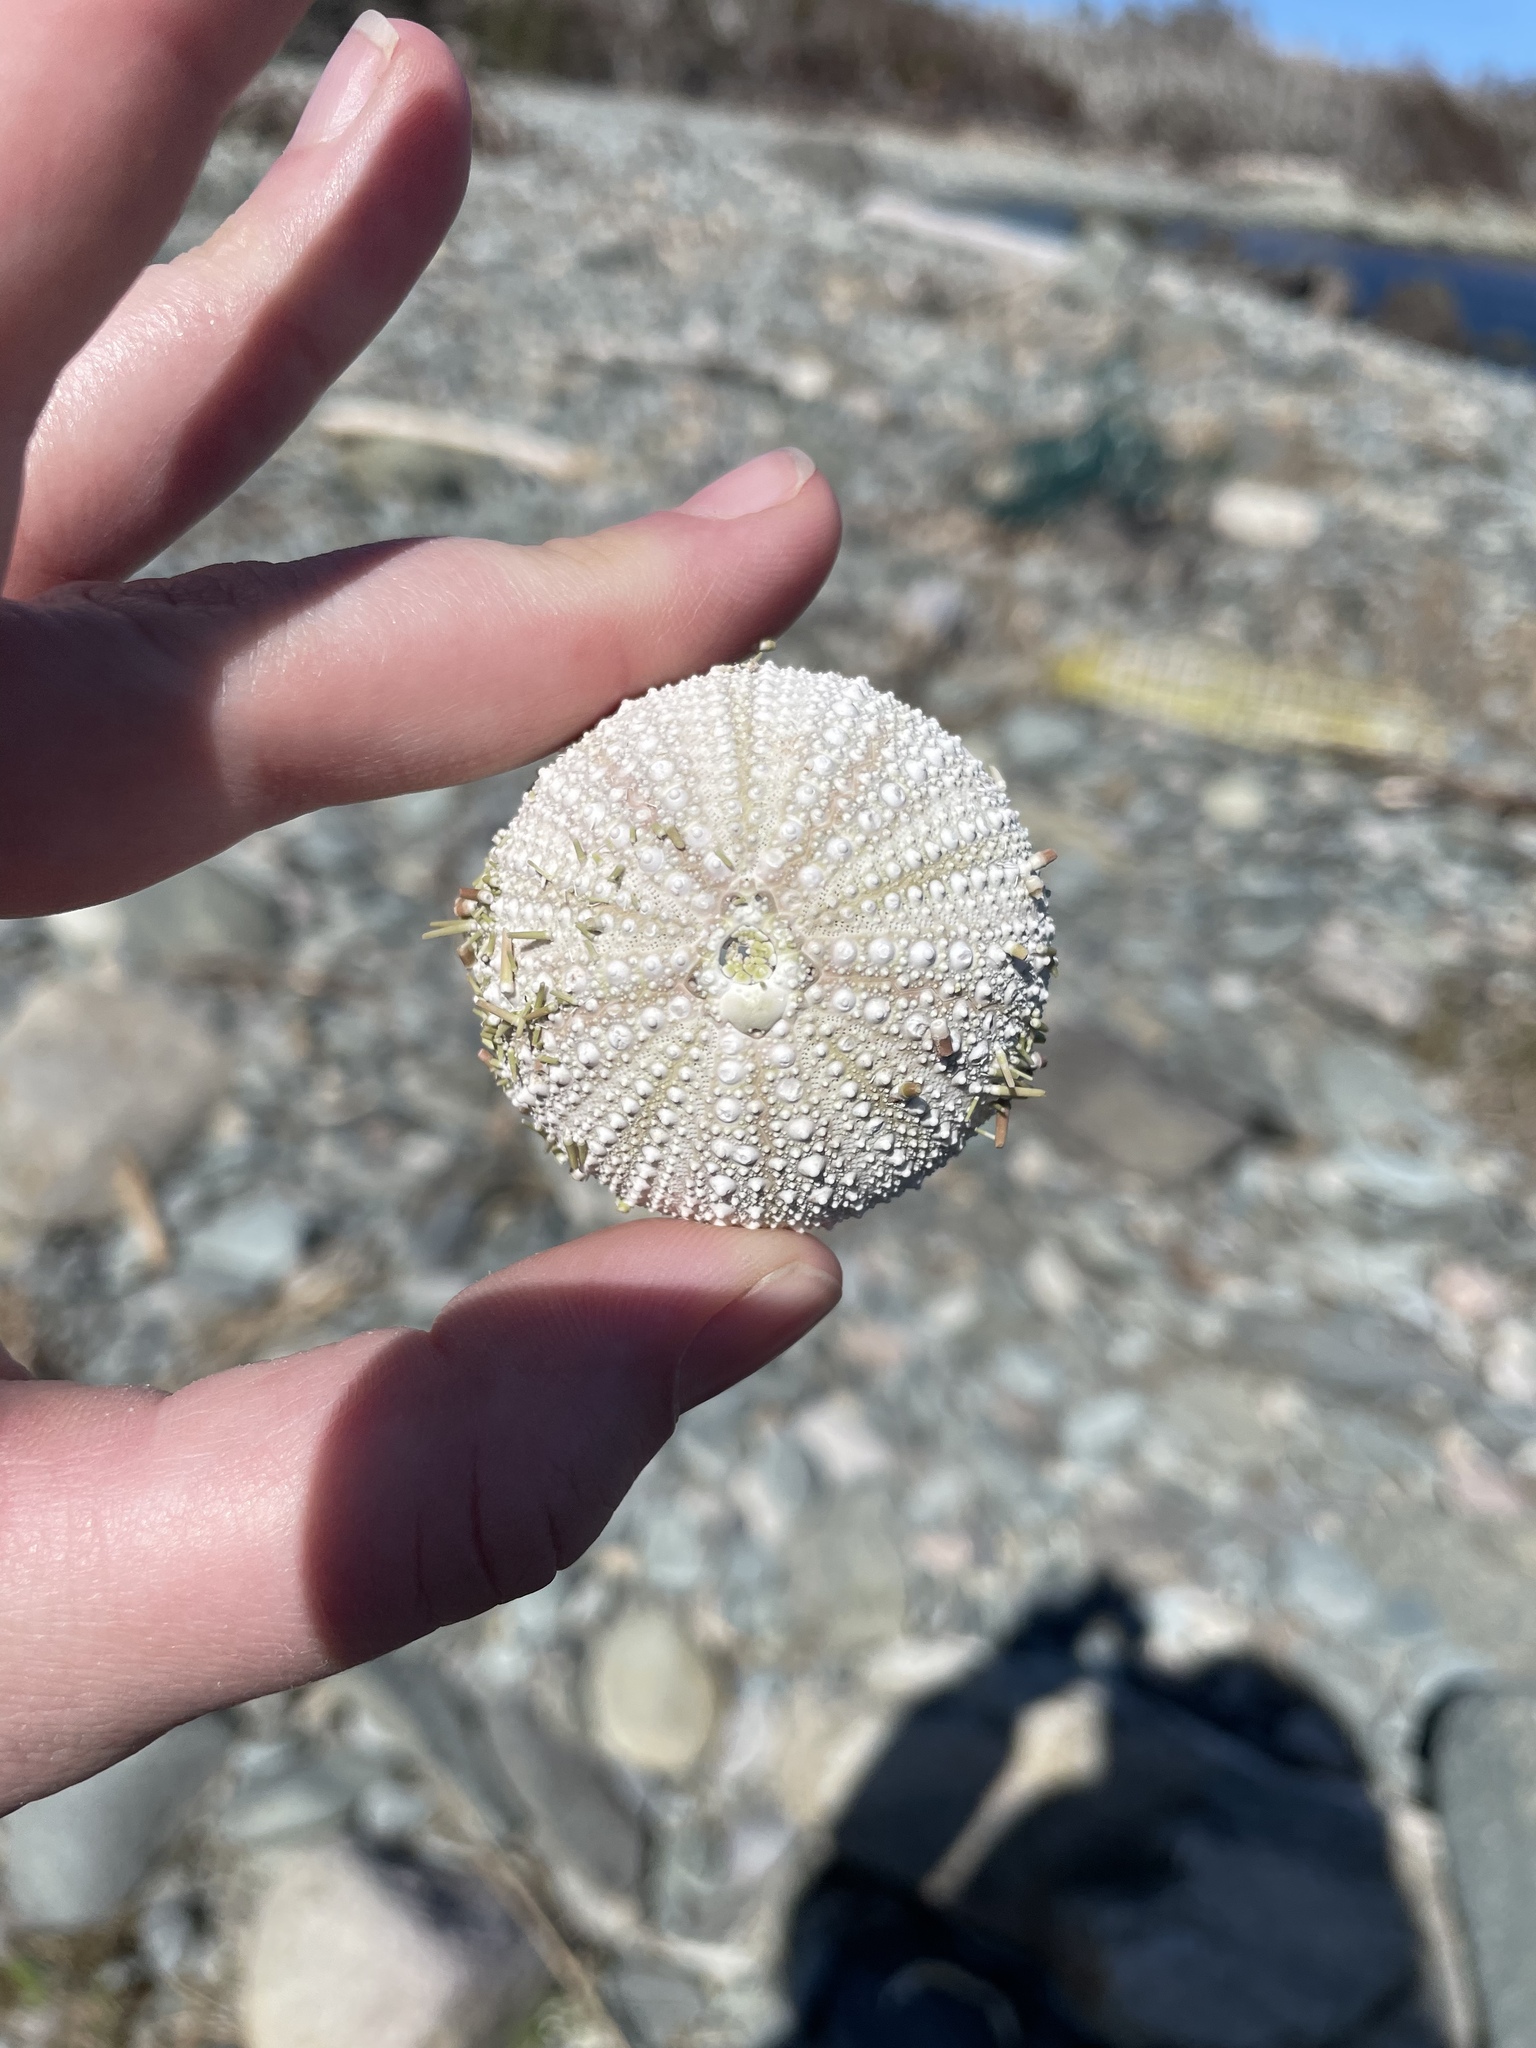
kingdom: Animalia
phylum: Echinodermata
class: Echinoidea
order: Camarodonta
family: Strongylocentrotidae
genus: Strongylocentrotus
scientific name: Strongylocentrotus droebachiensis
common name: Northern sea urchin
